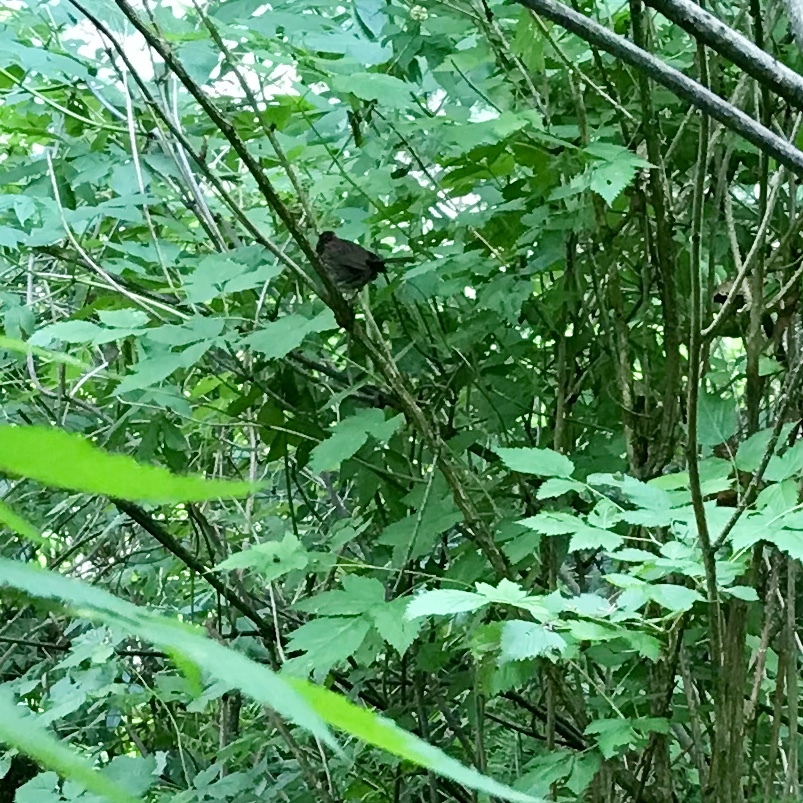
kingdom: Animalia
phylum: Chordata
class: Aves
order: Passeriformes
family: Passerellidae
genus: Melospiza
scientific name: Melospiza melodia
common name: Song sparrow
